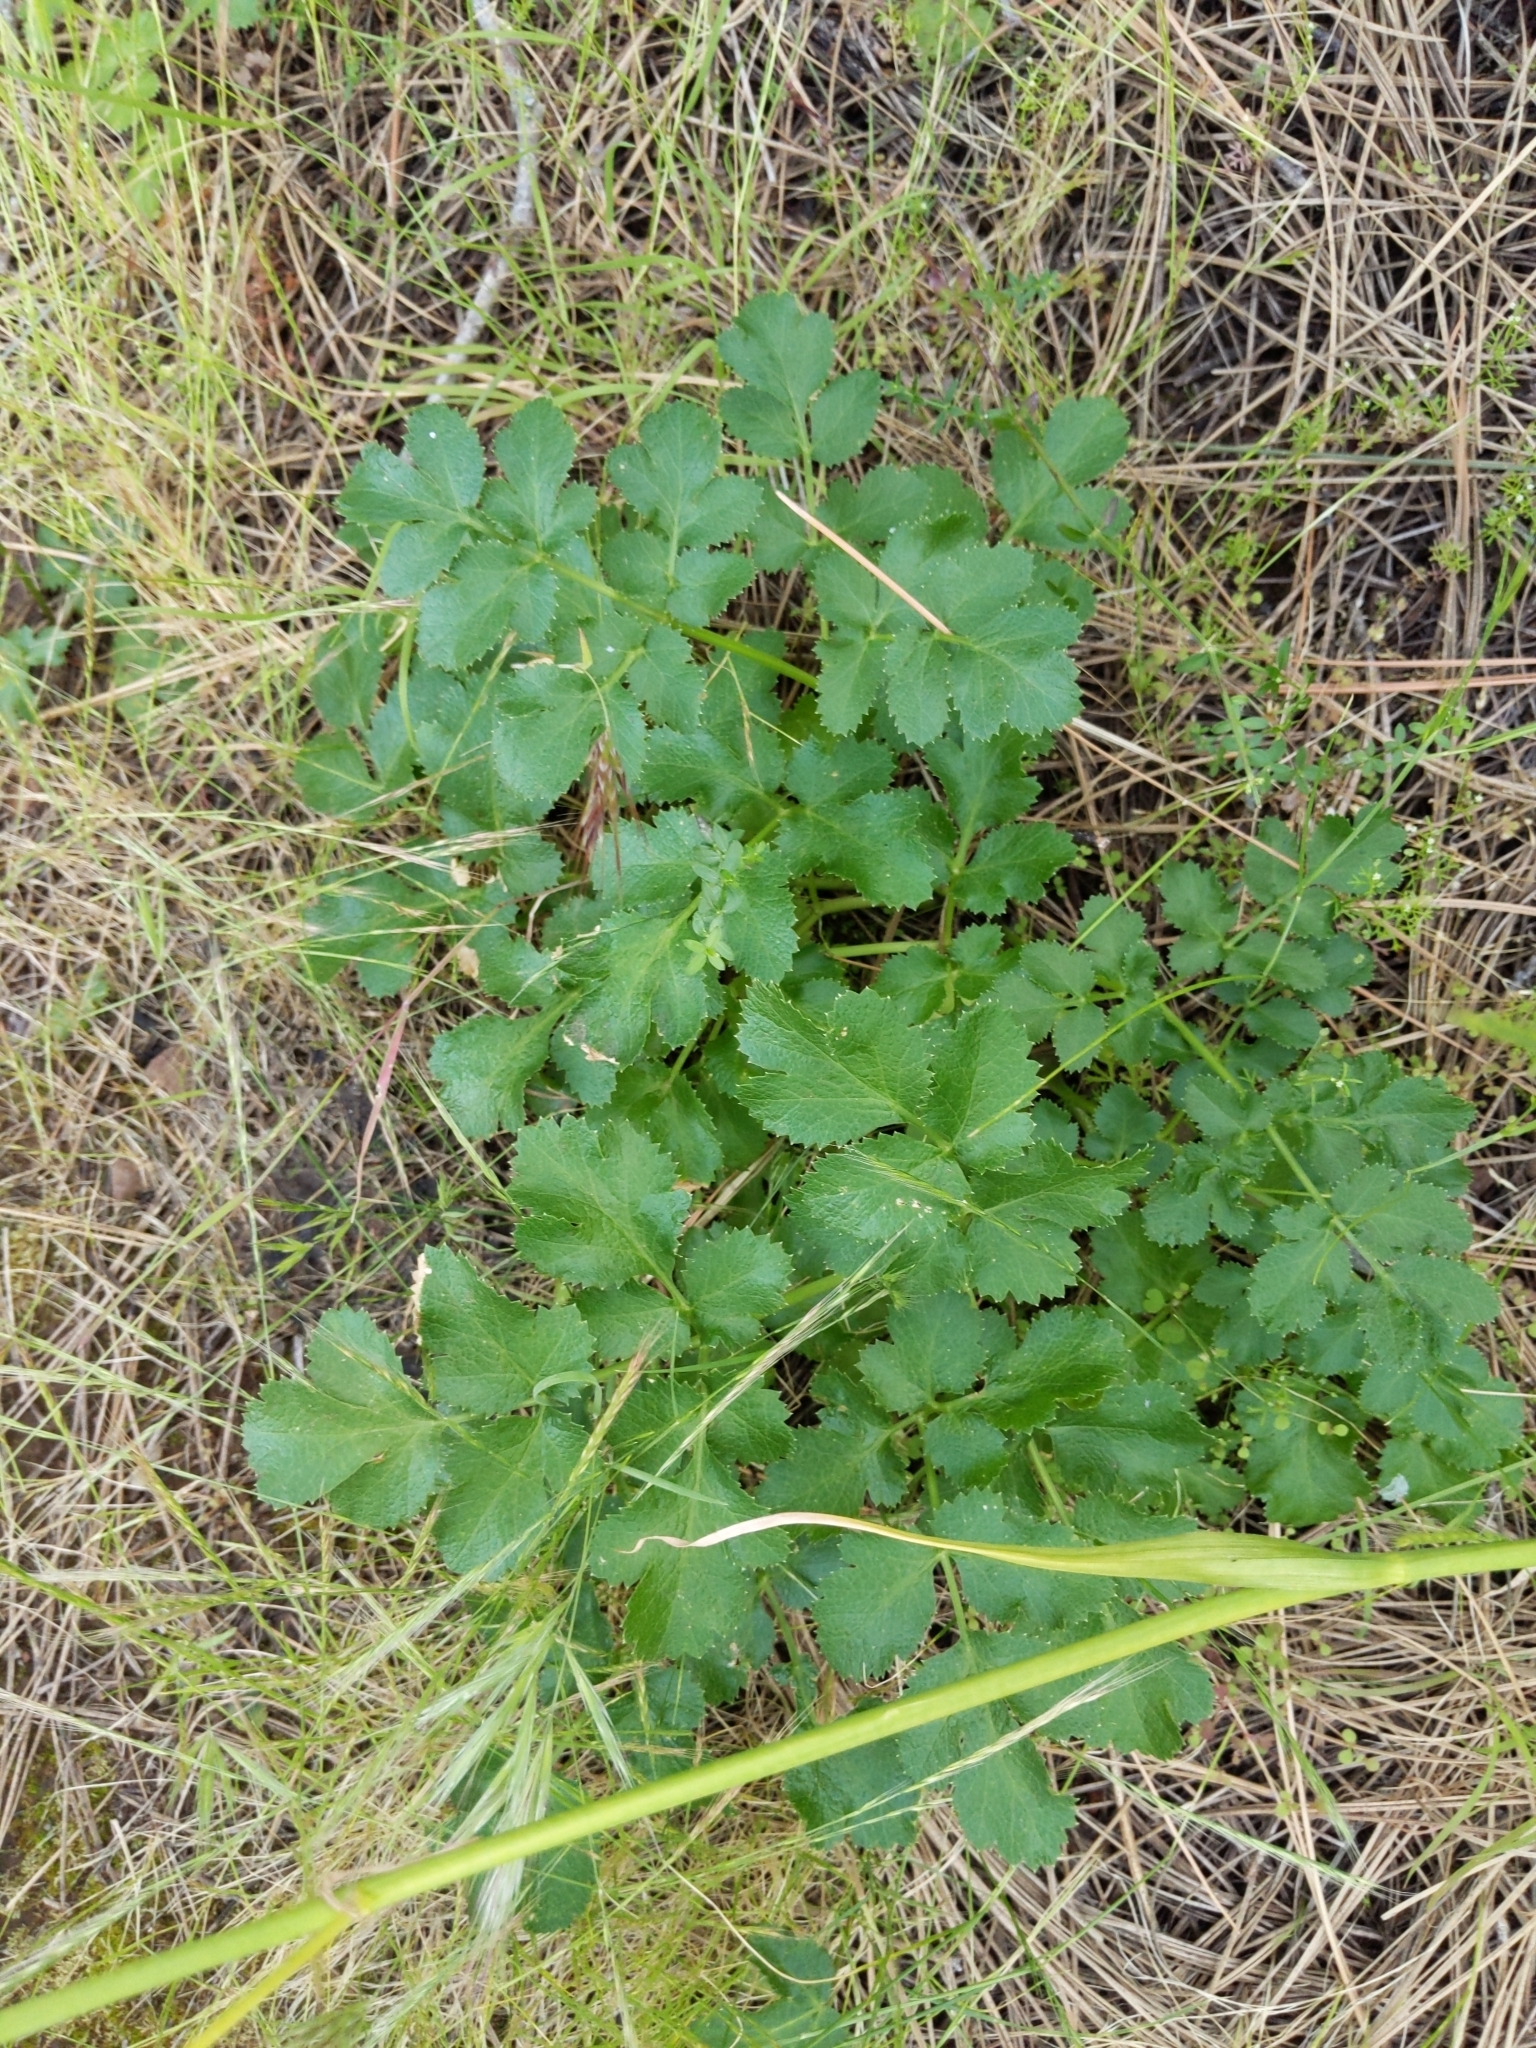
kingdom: Plantae
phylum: Tracheophyta
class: Magnoliopsida
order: Apiales
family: Apiaceae
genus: Tauschia
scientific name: Tauschia hartwegii
